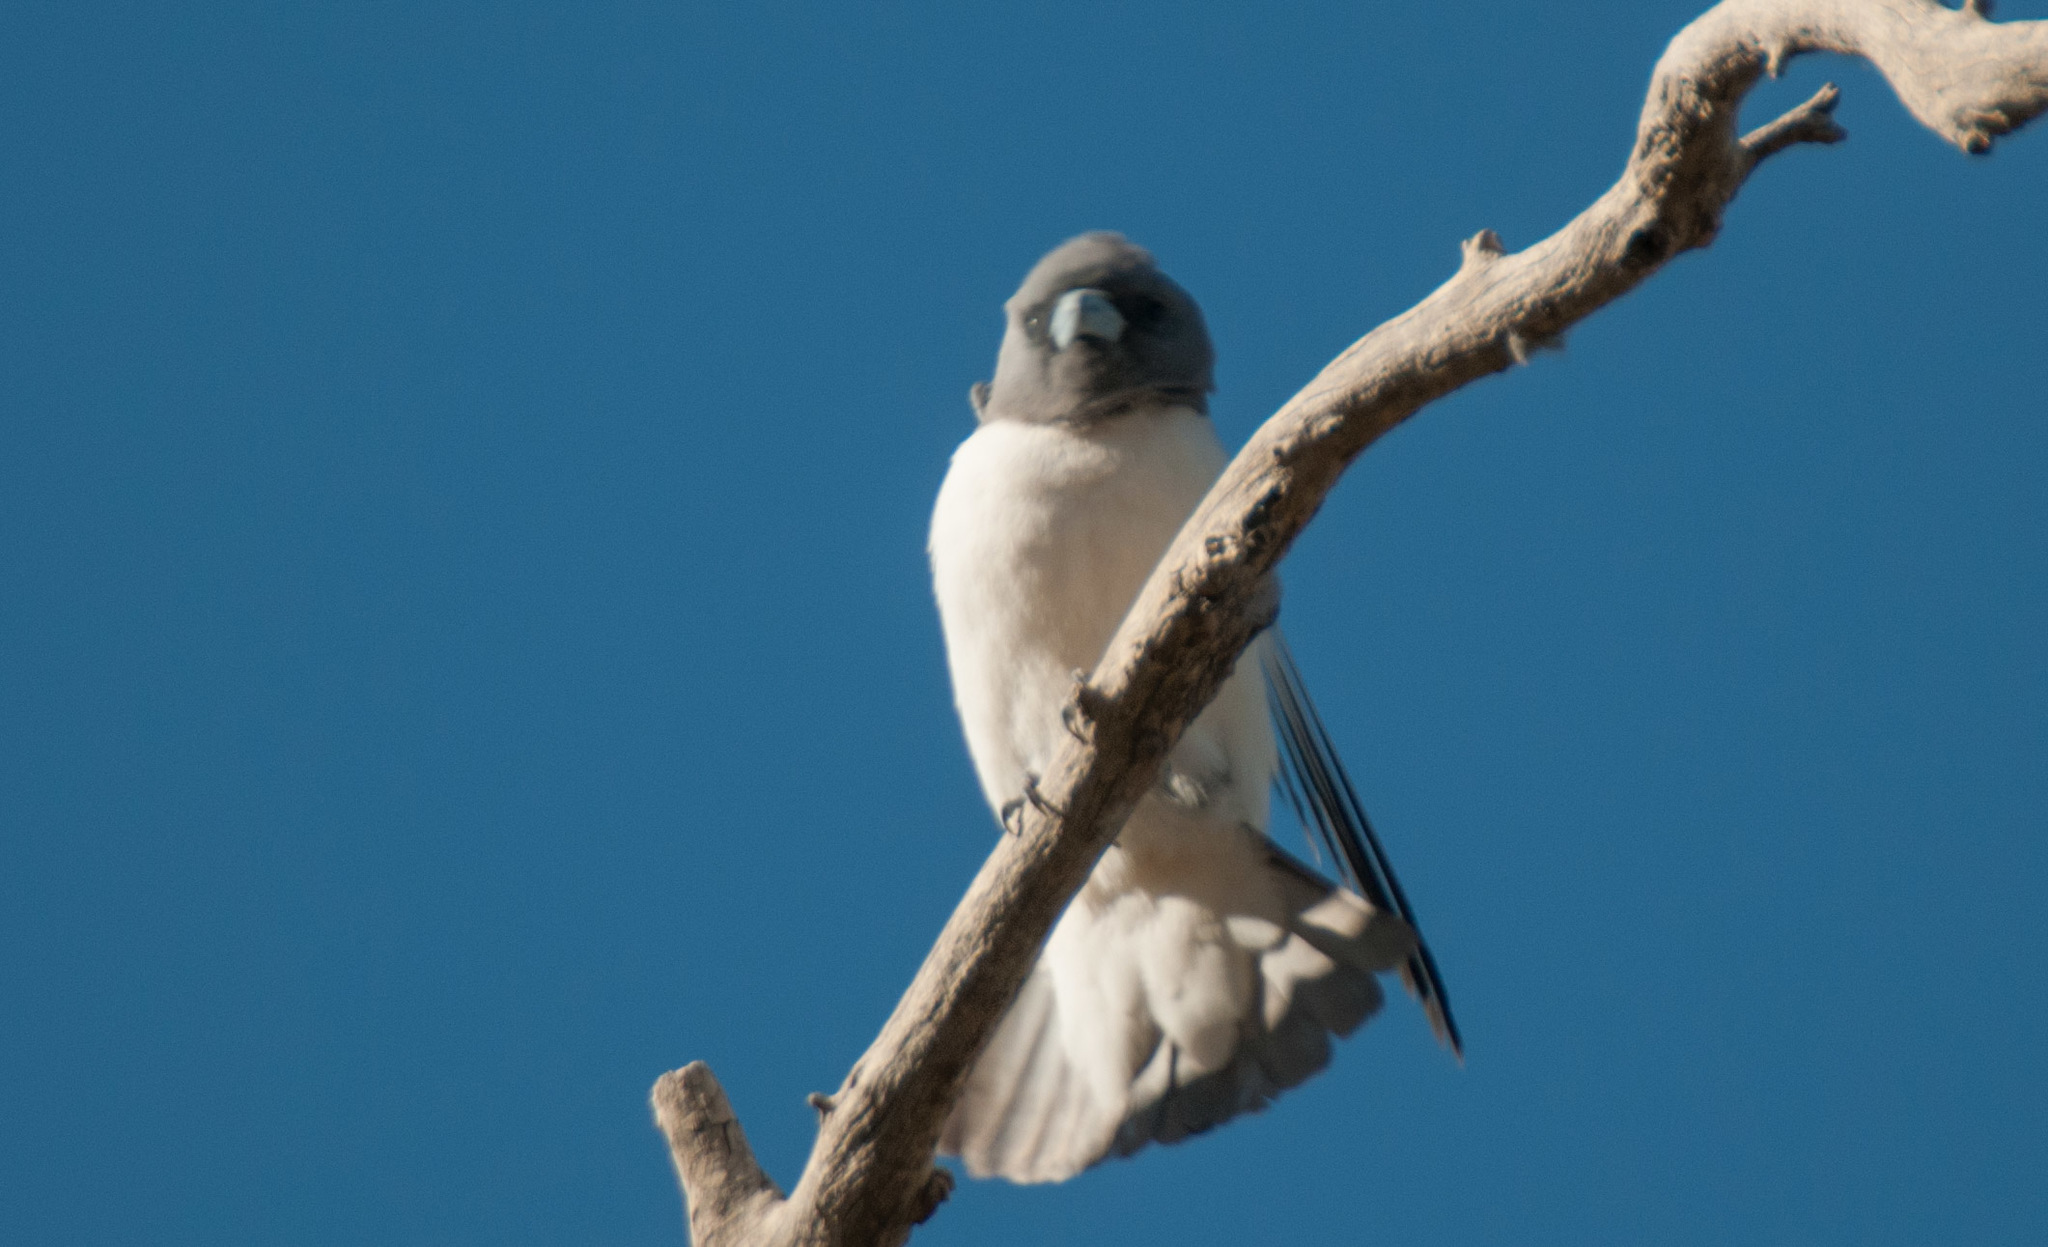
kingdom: Animalia
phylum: Chordata
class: Aves
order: Passeriformes
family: Artamidae
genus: Artamus
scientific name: Artamus leucoryn
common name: White-breasted woodswallow
